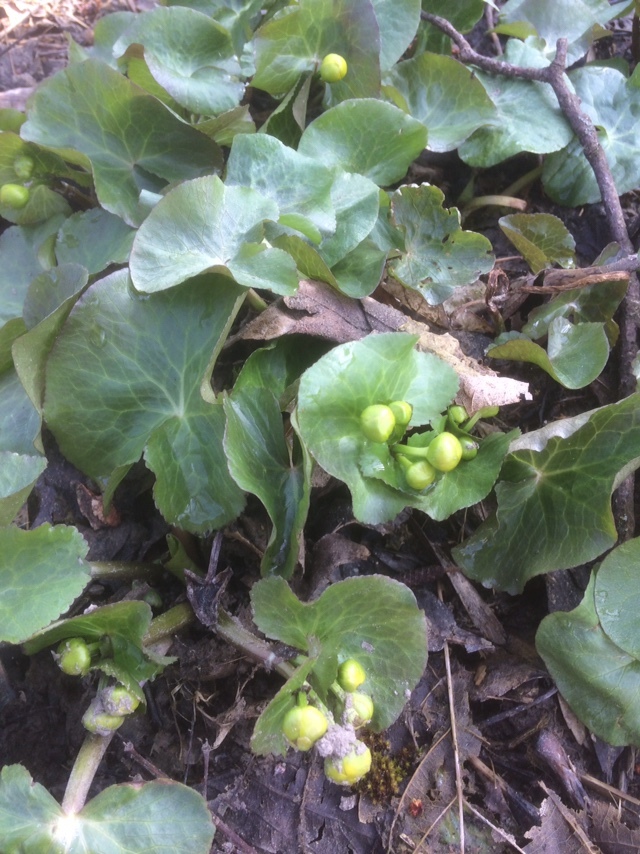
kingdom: Plantae
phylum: Tracheophyta
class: Magnoliopsida
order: Ranunculales
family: Ranunculaceae
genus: Caltha
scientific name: Caltha palustris
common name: Marsh marigold
